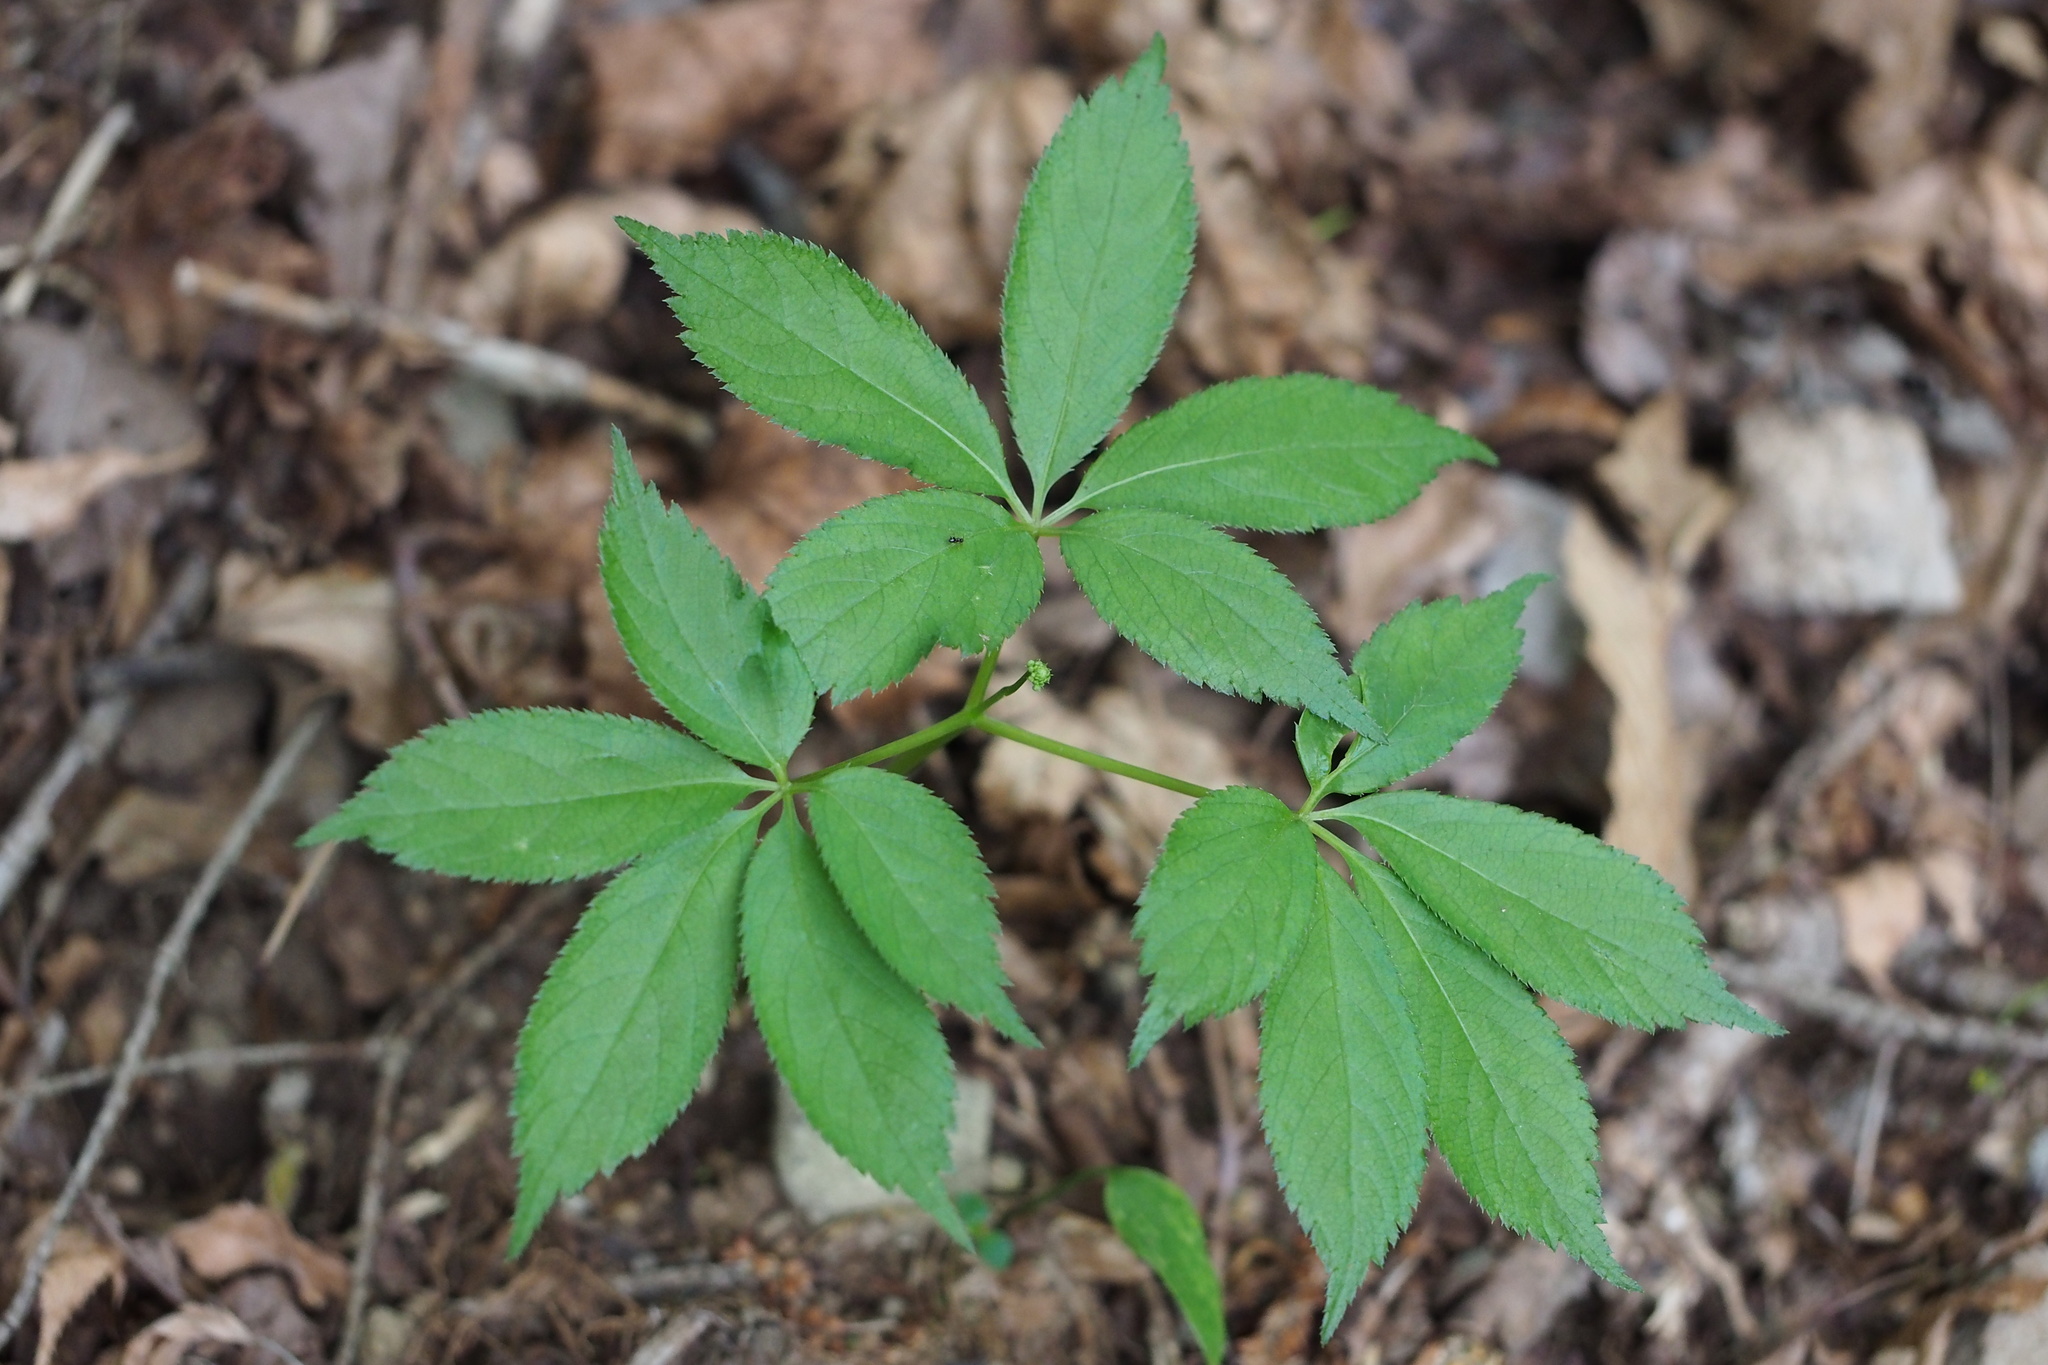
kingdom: Plantae
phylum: Tracheophyta
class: Magnoliopsida
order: Apiales
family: Araliaceae
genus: Panax
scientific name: Panax japonicus
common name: Japanese ginseng
